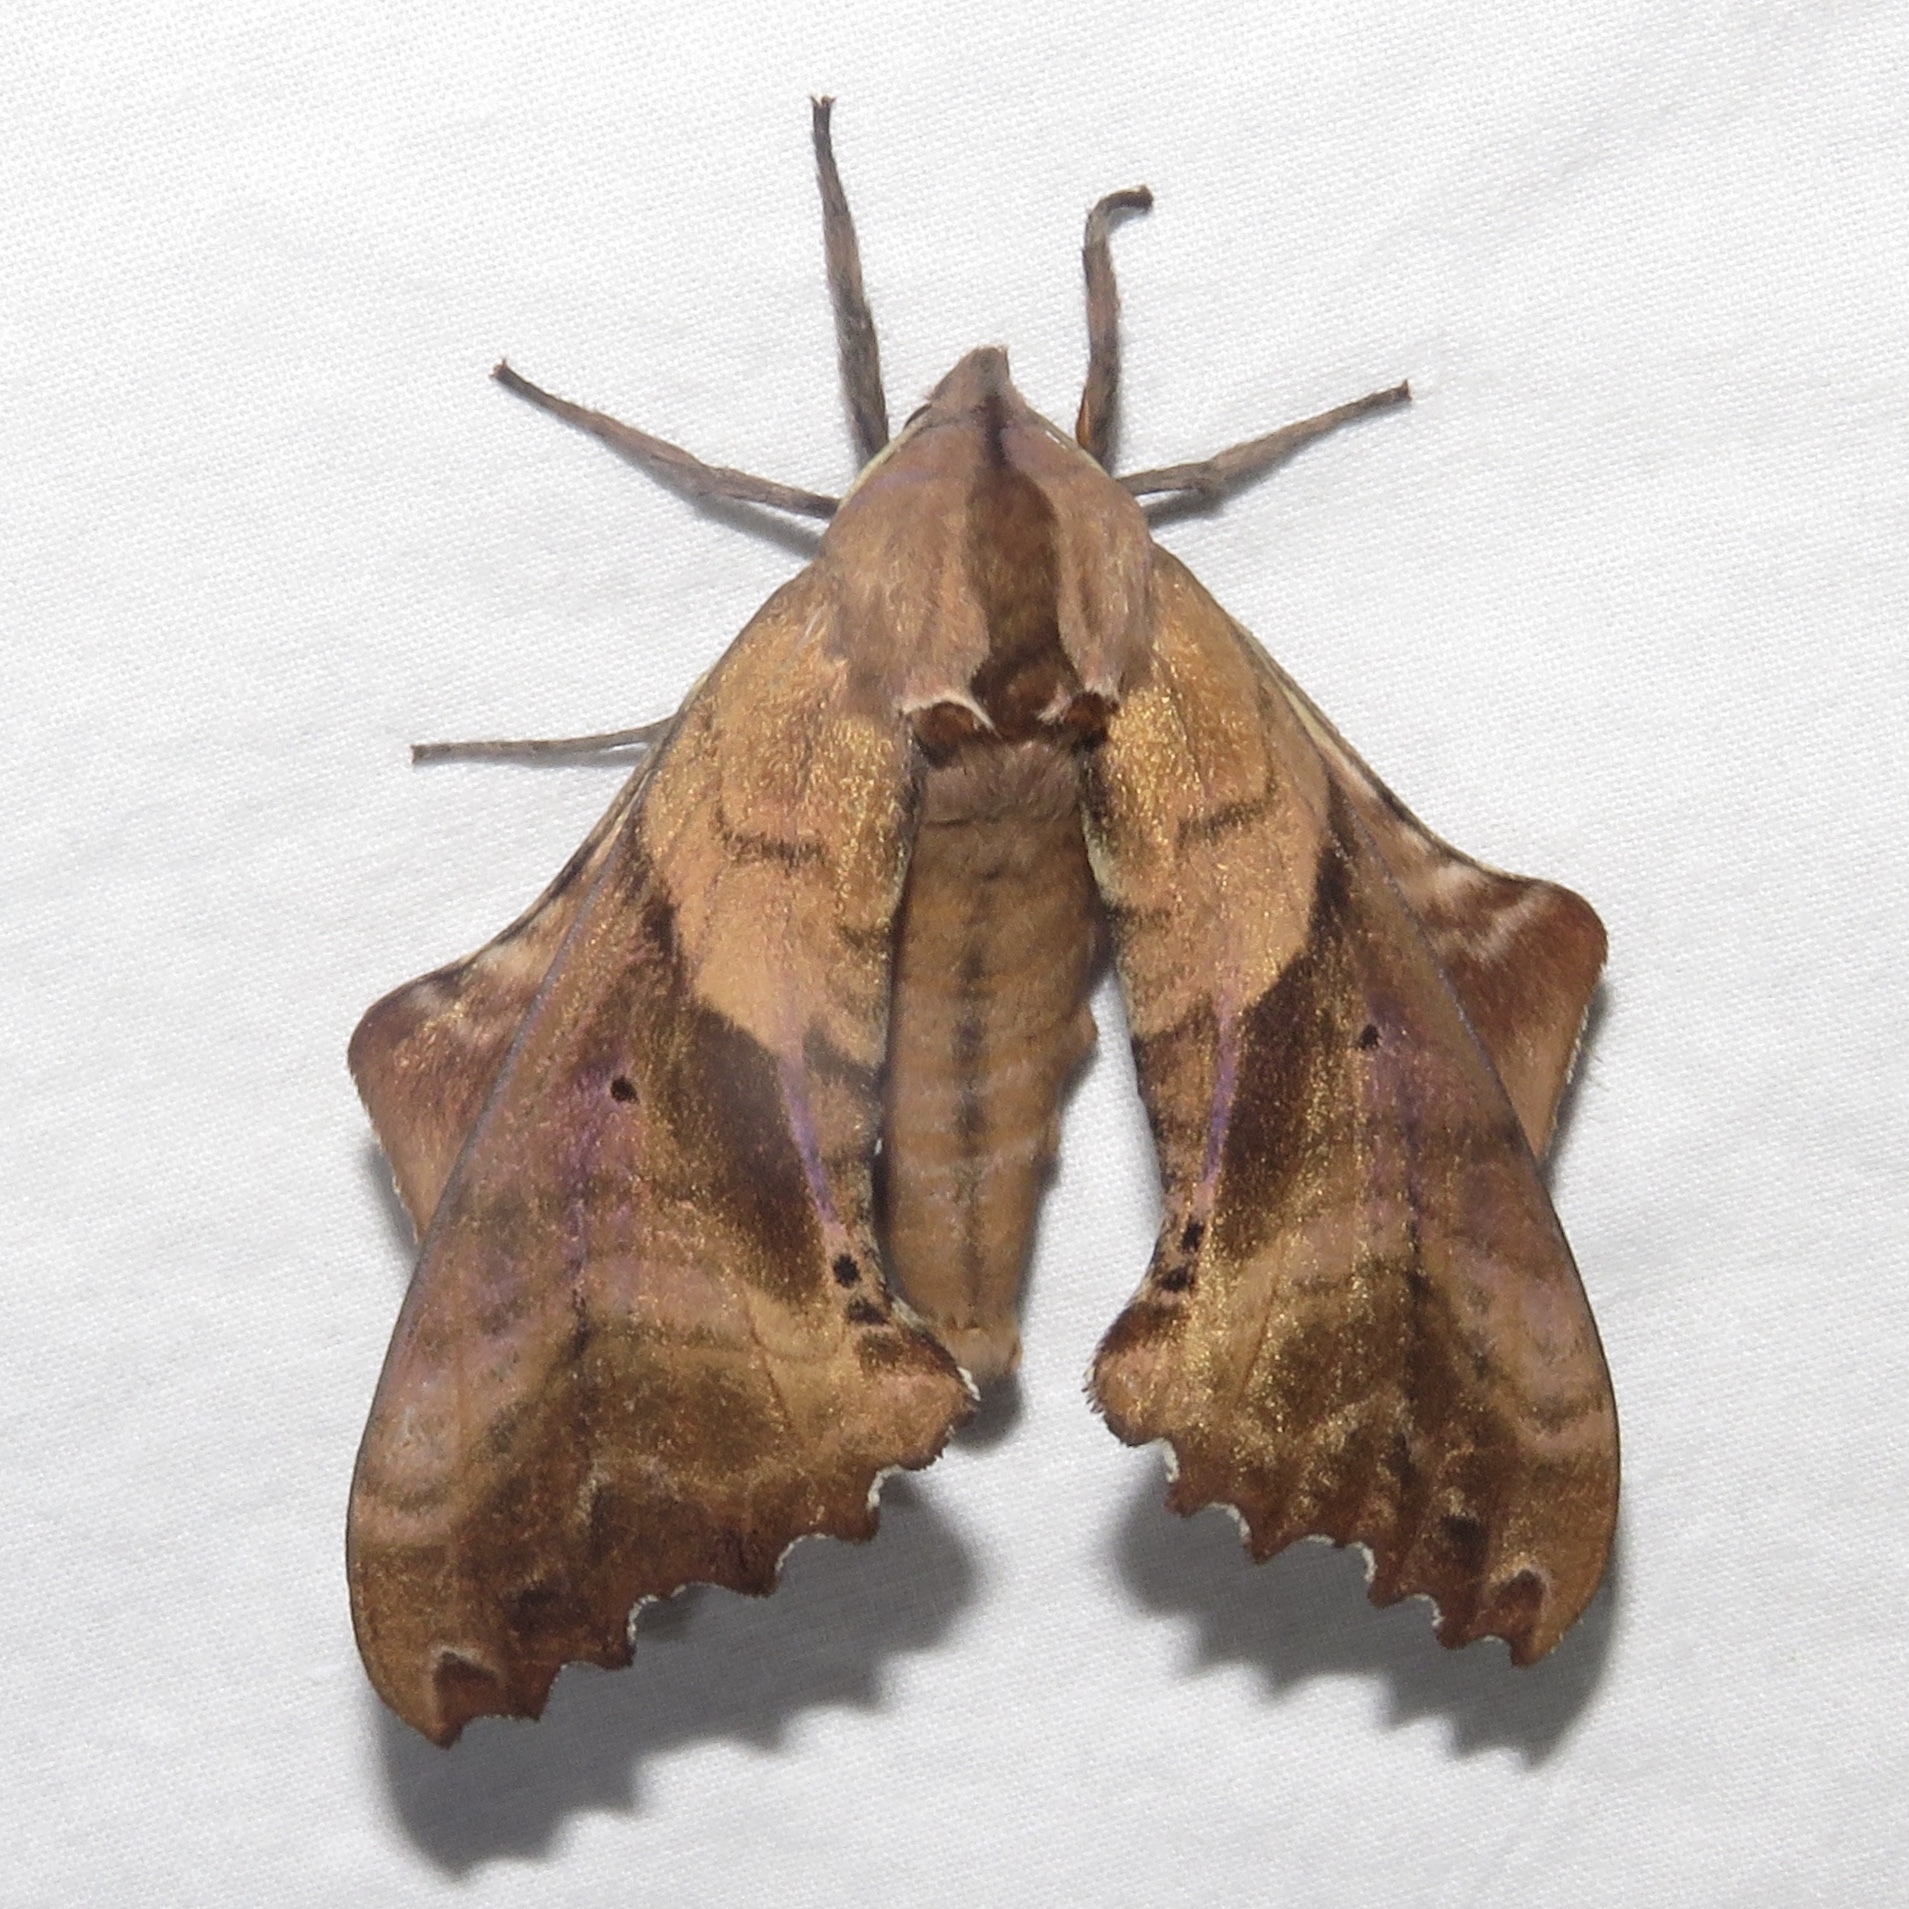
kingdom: Animalia
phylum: Arthropoda
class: Insecta
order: Lepidoptera
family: Sphingidae
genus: Paonias
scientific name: Paonias excaecata
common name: Blind-eyed sphinx
